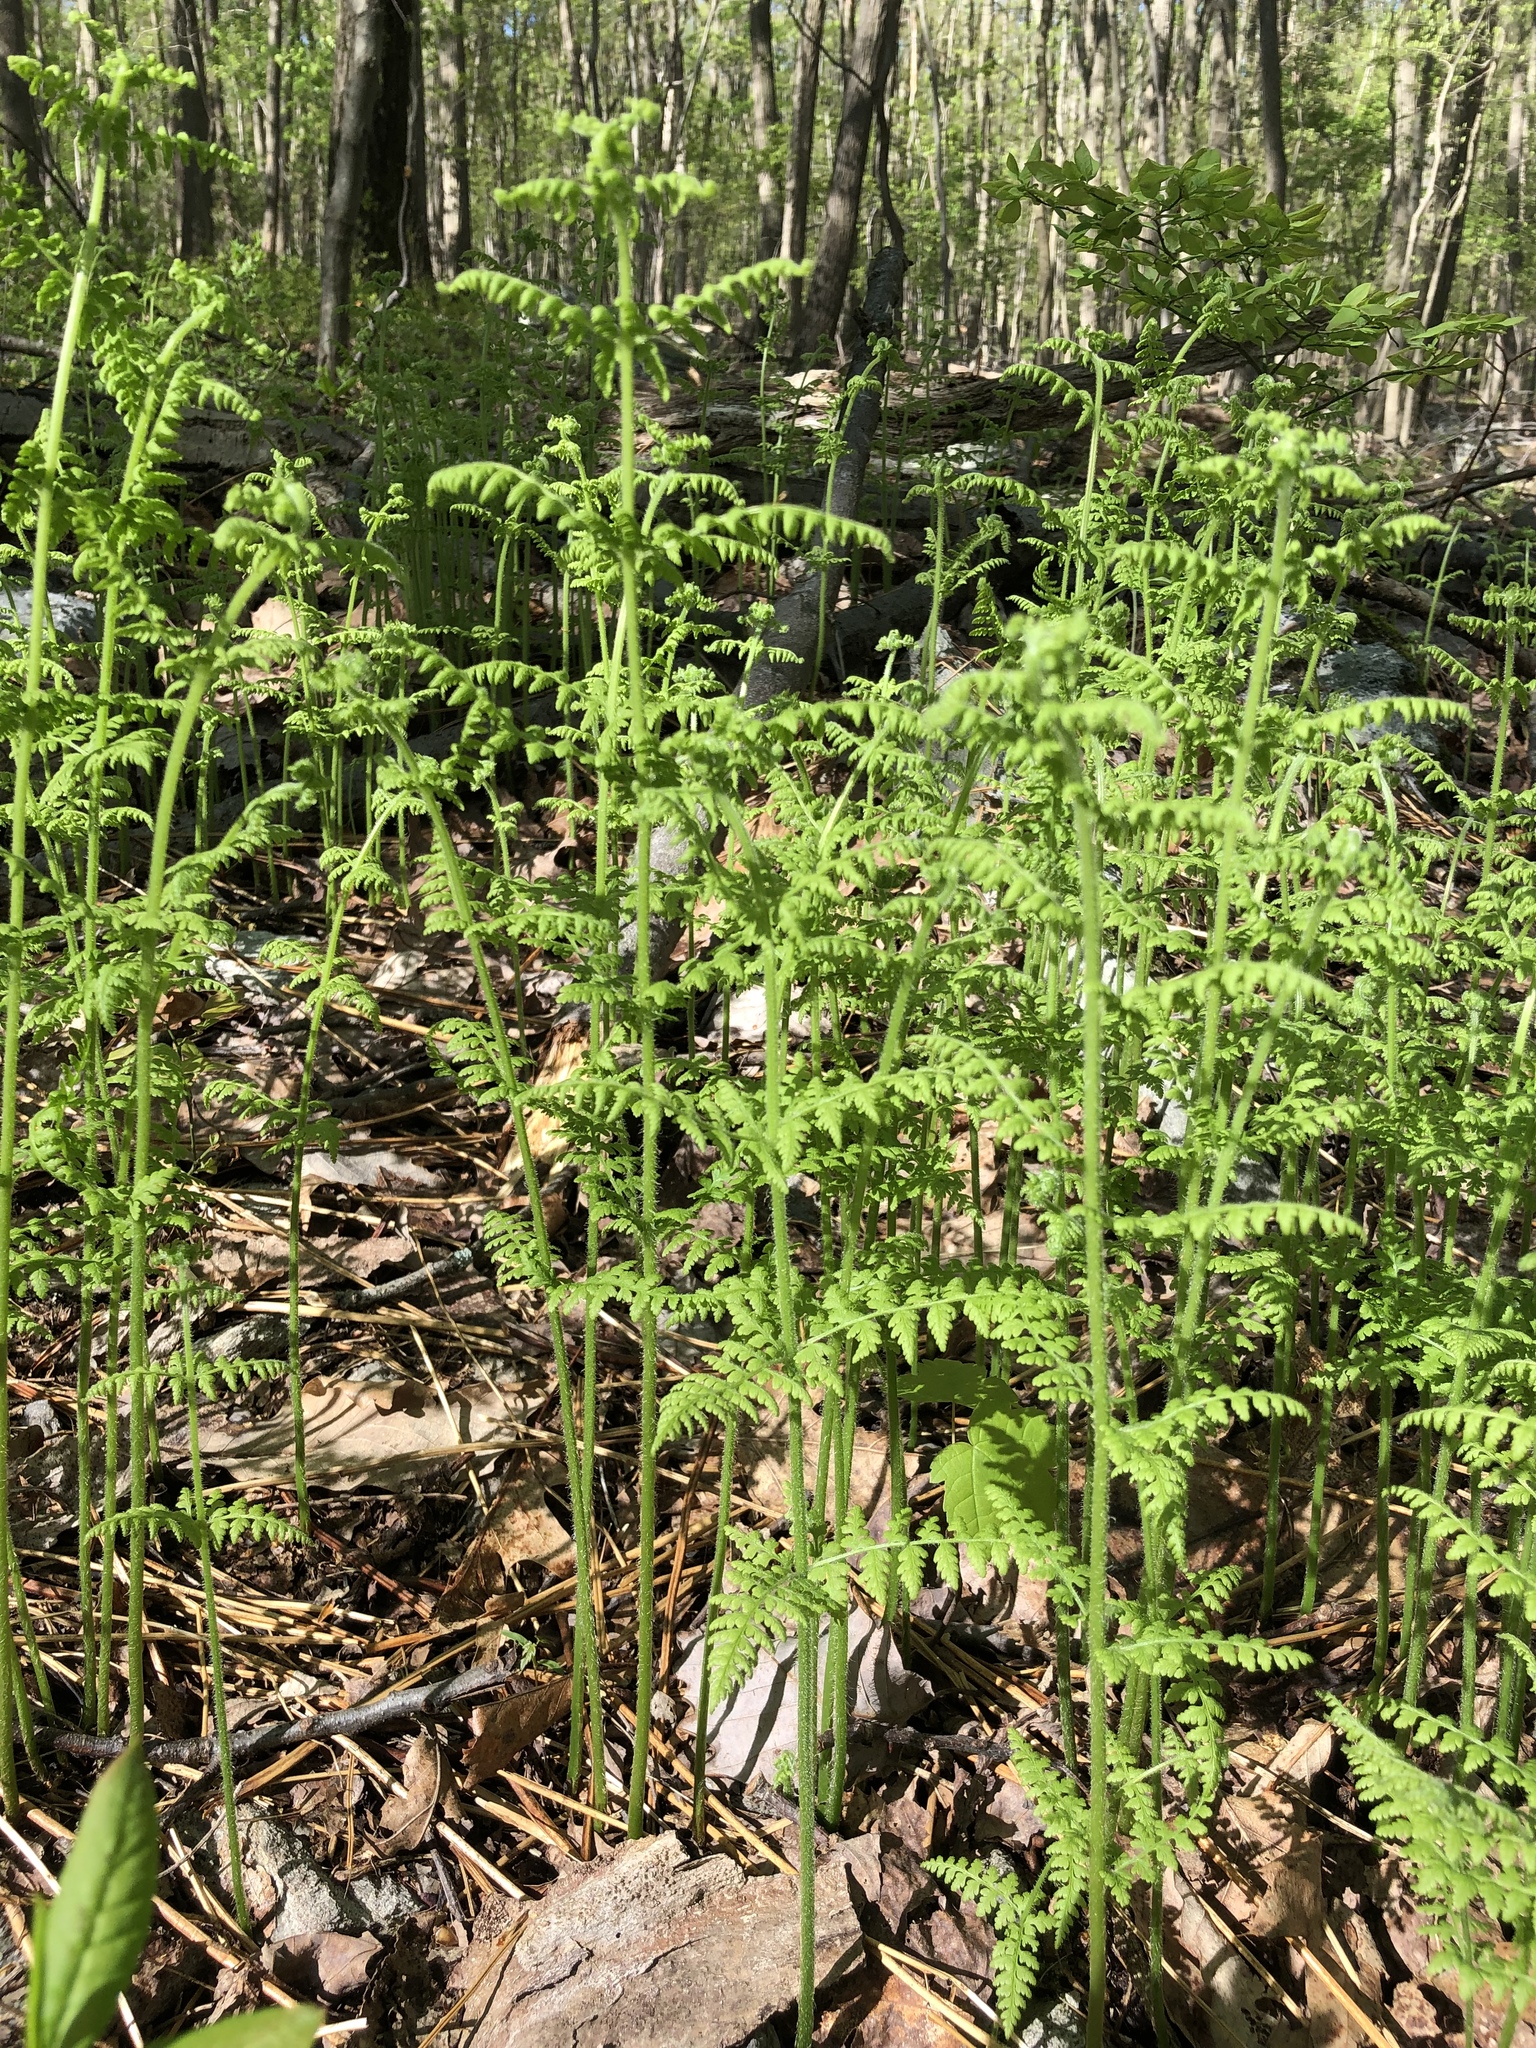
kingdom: Plantae
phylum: Tracheophyta
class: Polypodiopsida
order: Polypodiales
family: Dennstaedtiaceae
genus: Sitobolium
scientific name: Sitobolium punctilobum
